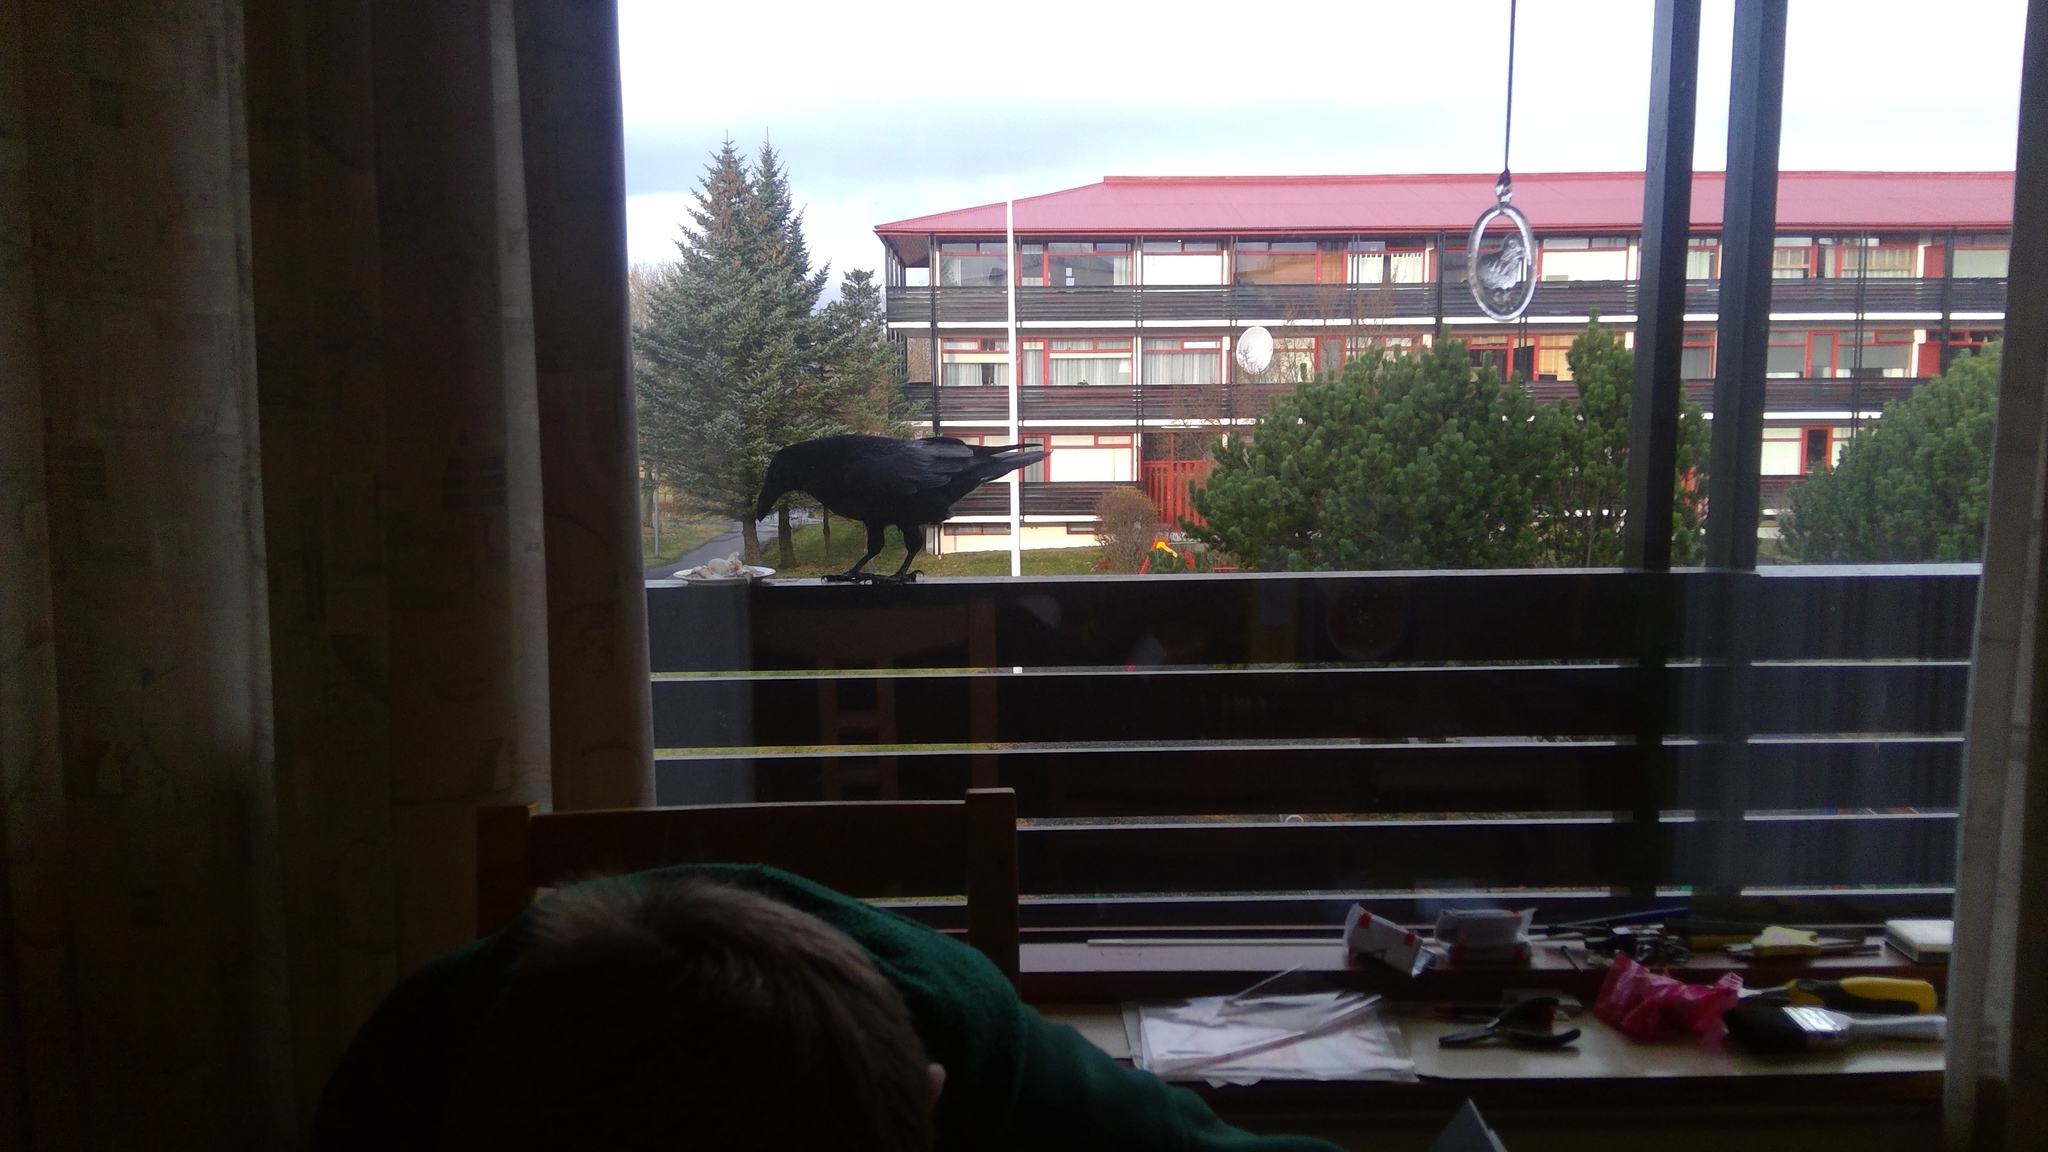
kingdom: Animalia
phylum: Chordata
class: Aves
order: Passeriformes
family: Corvidae
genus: Corvus
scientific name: Corvus corax
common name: Common raven
